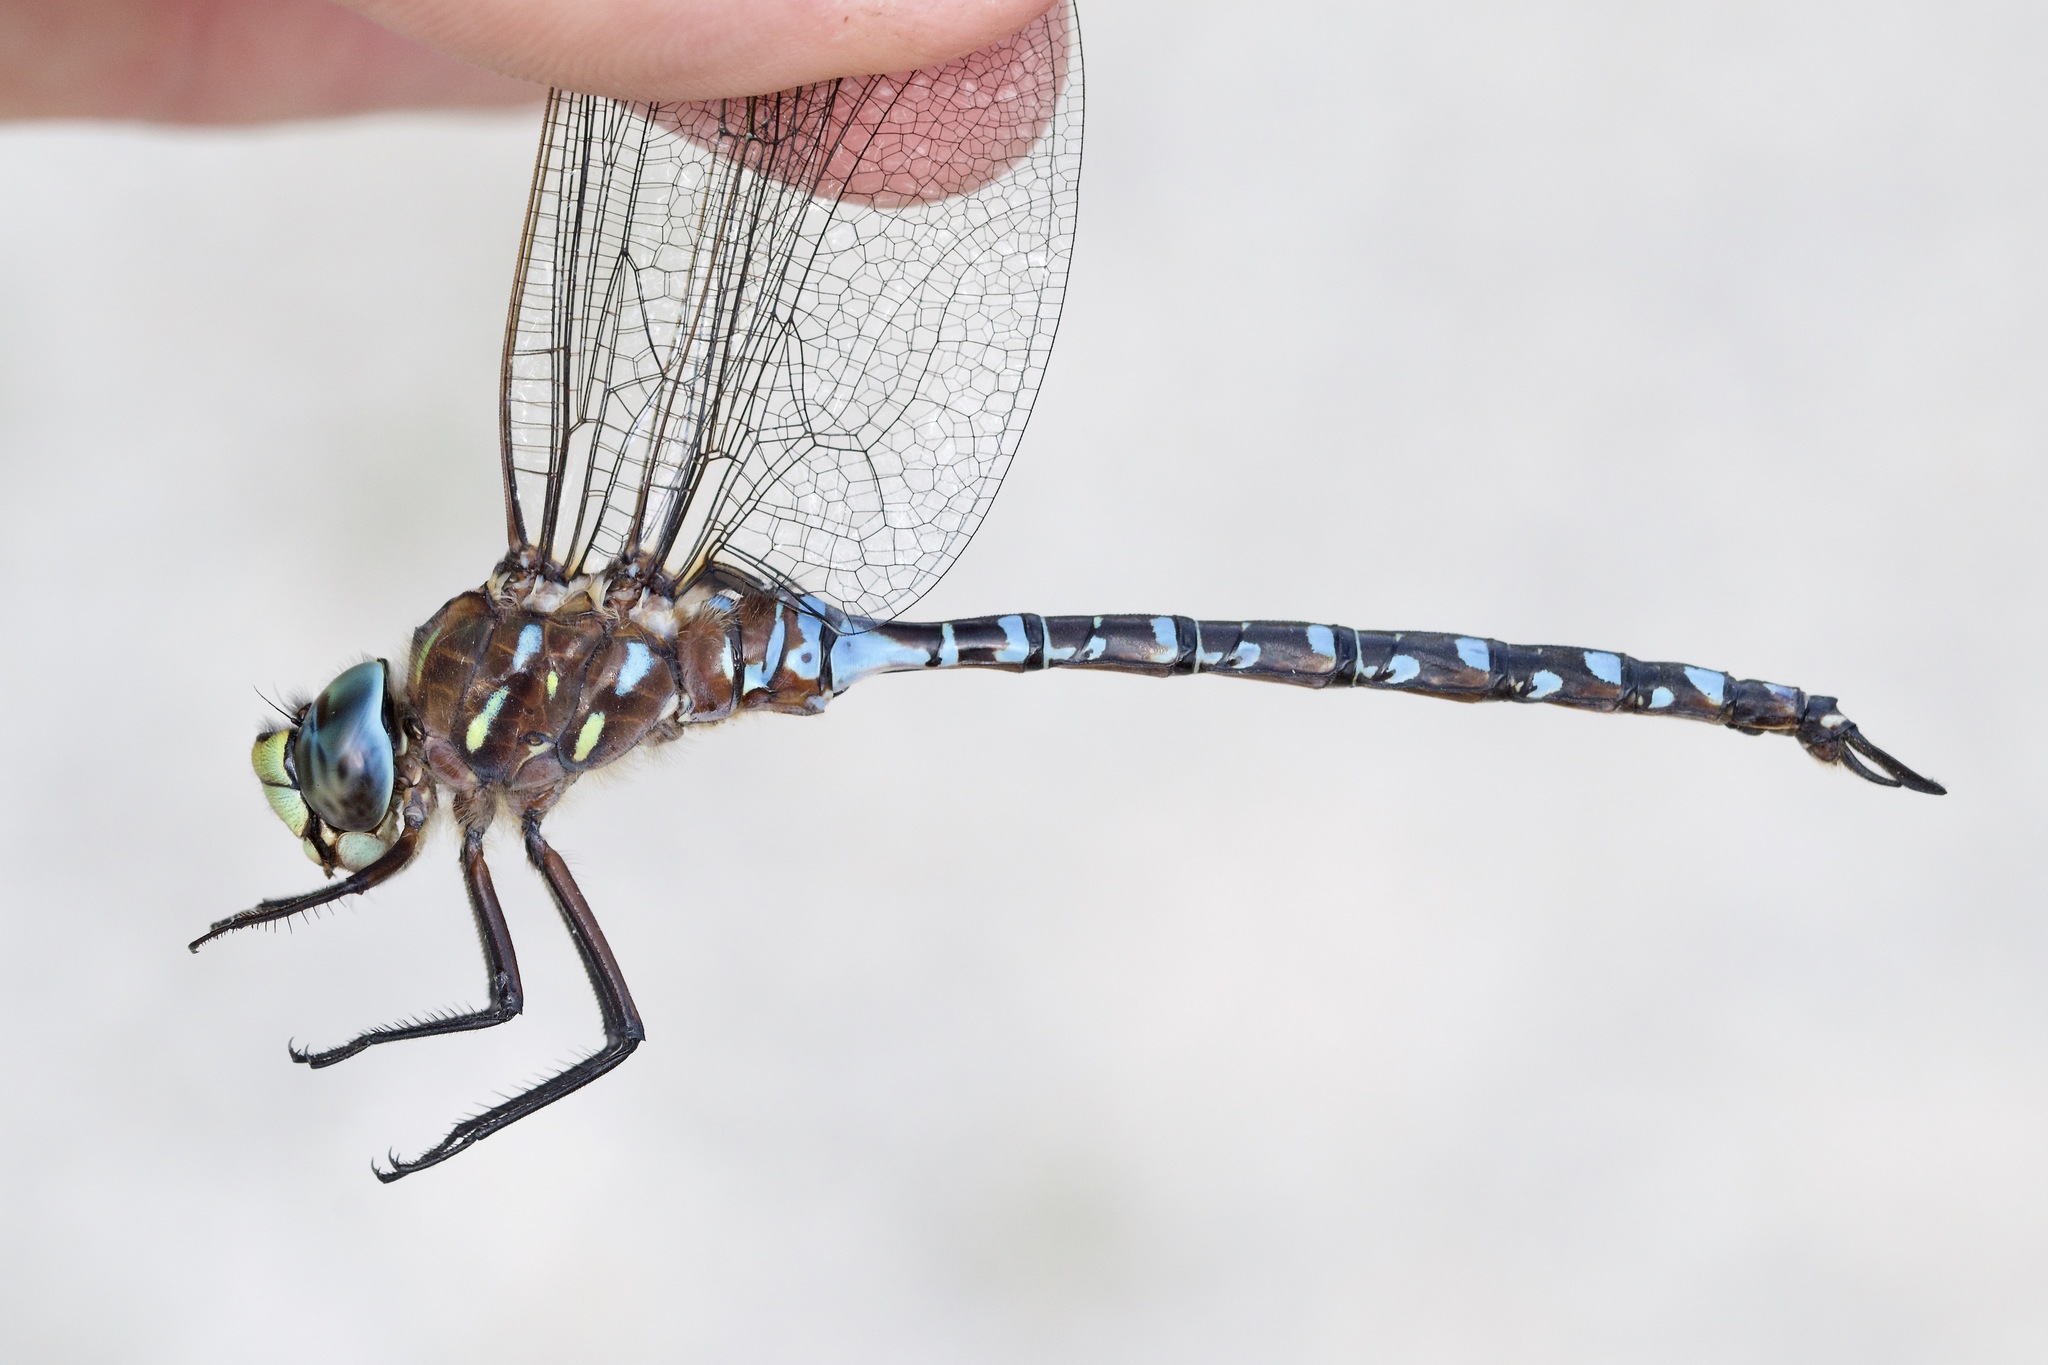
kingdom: Animalia
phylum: Arthropoda
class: Insecta
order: Odonata
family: Aeshnidae
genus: Aeshna
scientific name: Aeshna interrupta
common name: Variable darner
